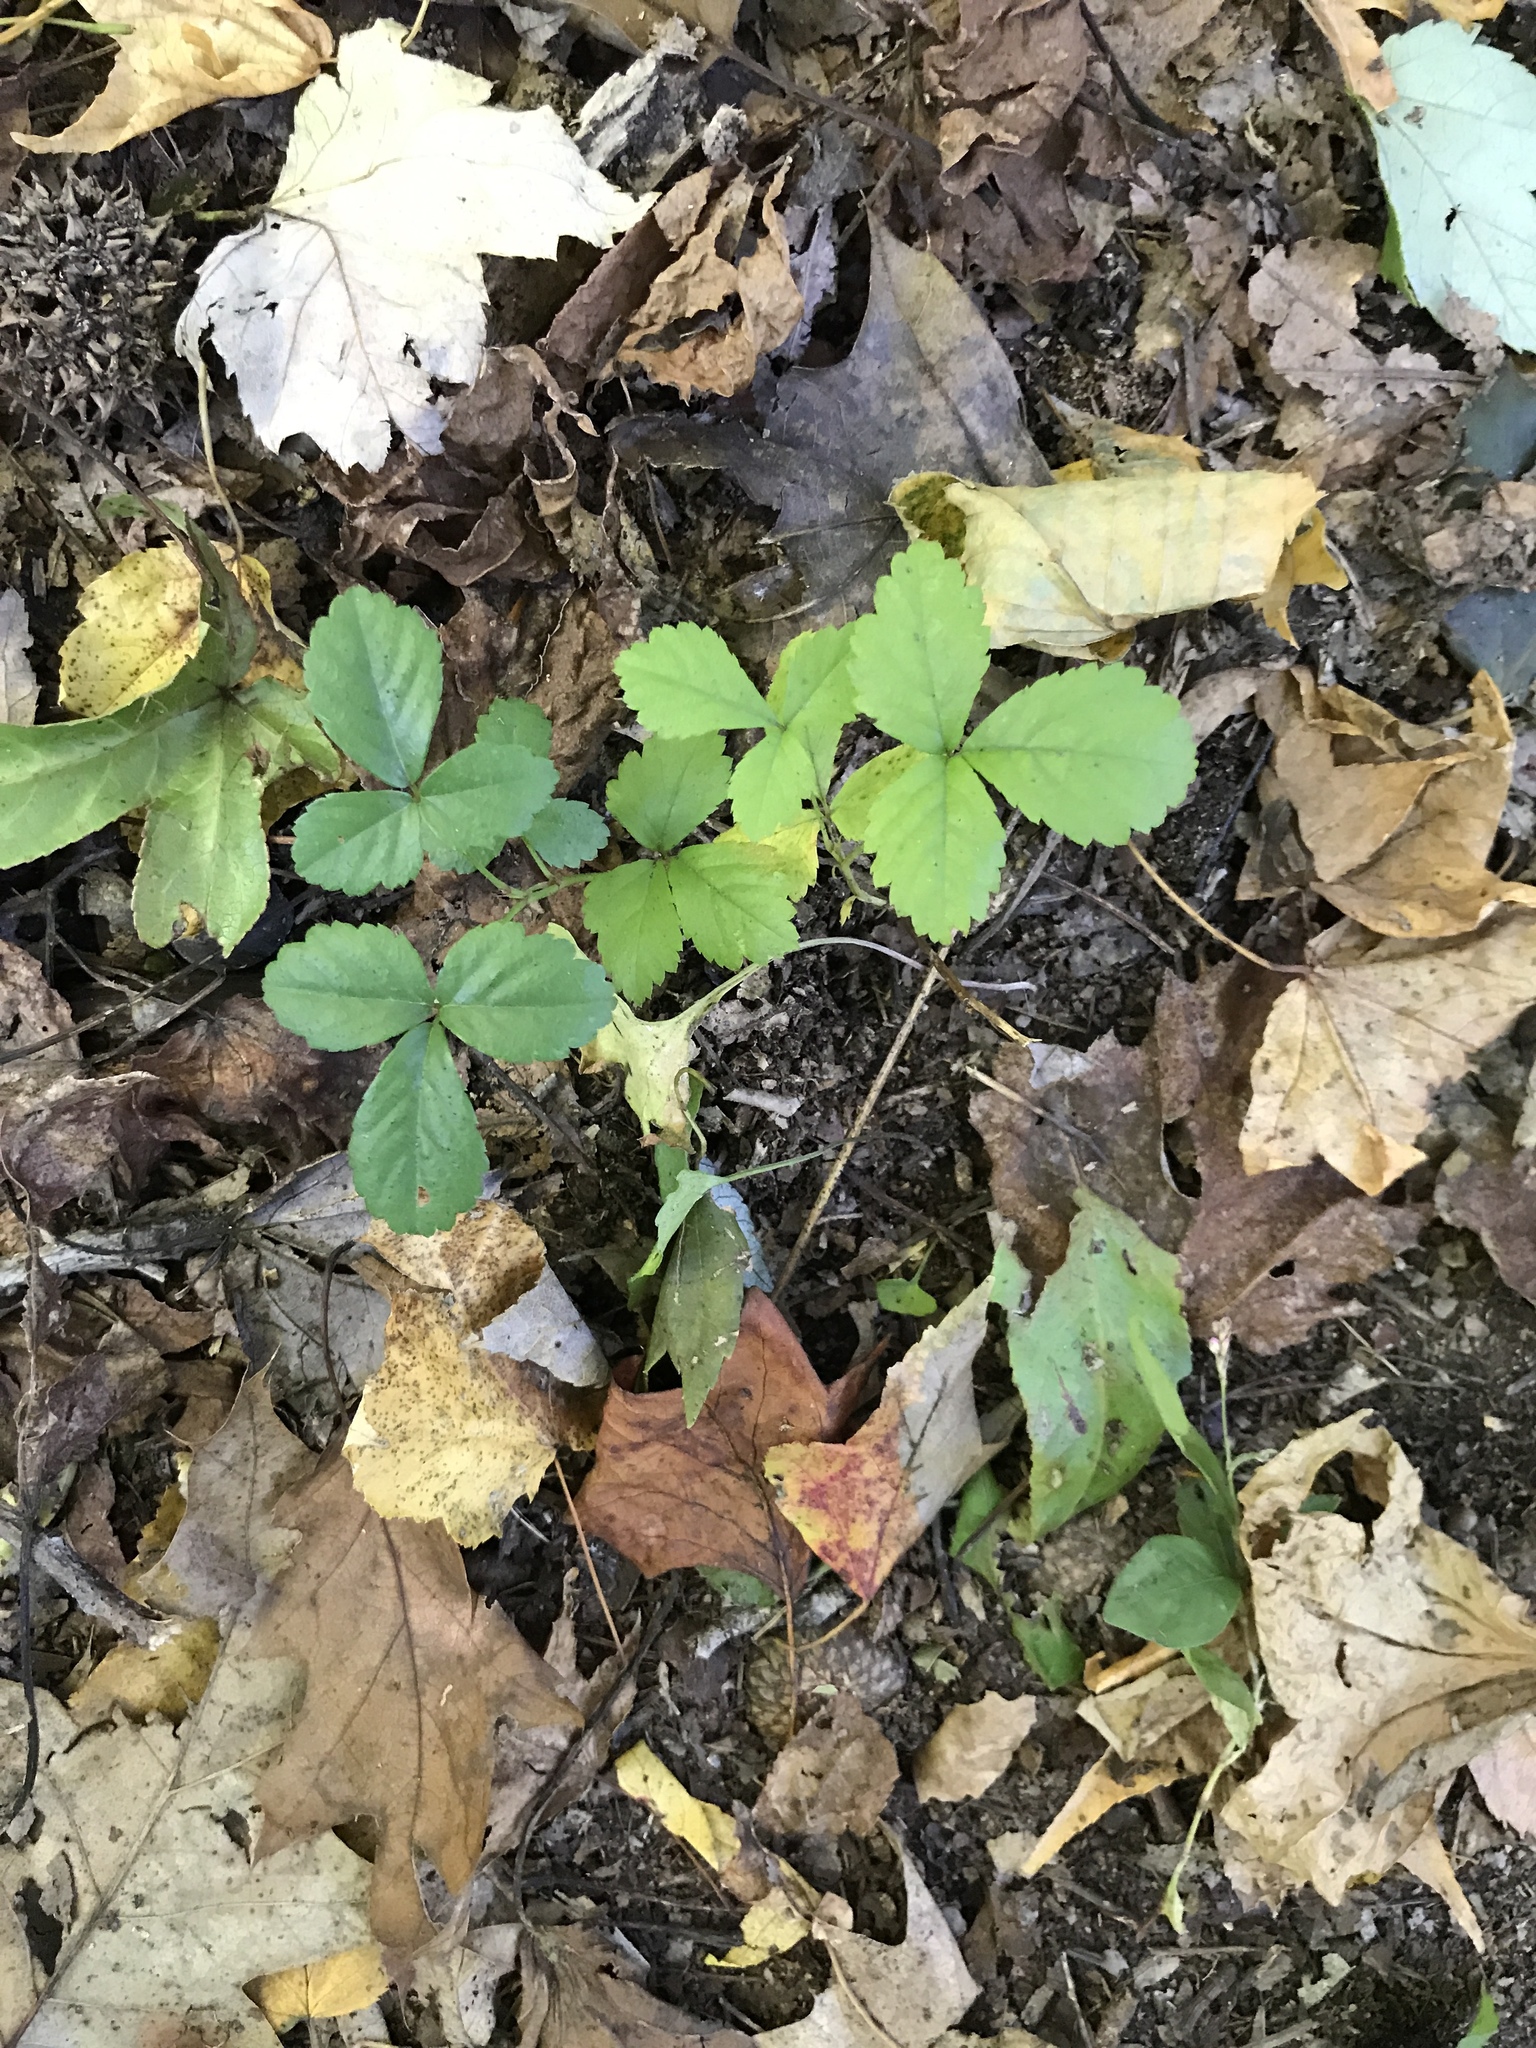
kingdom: Plantae
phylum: Tracheophyta
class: Magnoliopsida
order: Rosales
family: Rosaceae
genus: Potentilla
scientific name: Potentilla indica
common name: Yellow-flowered strawberry
